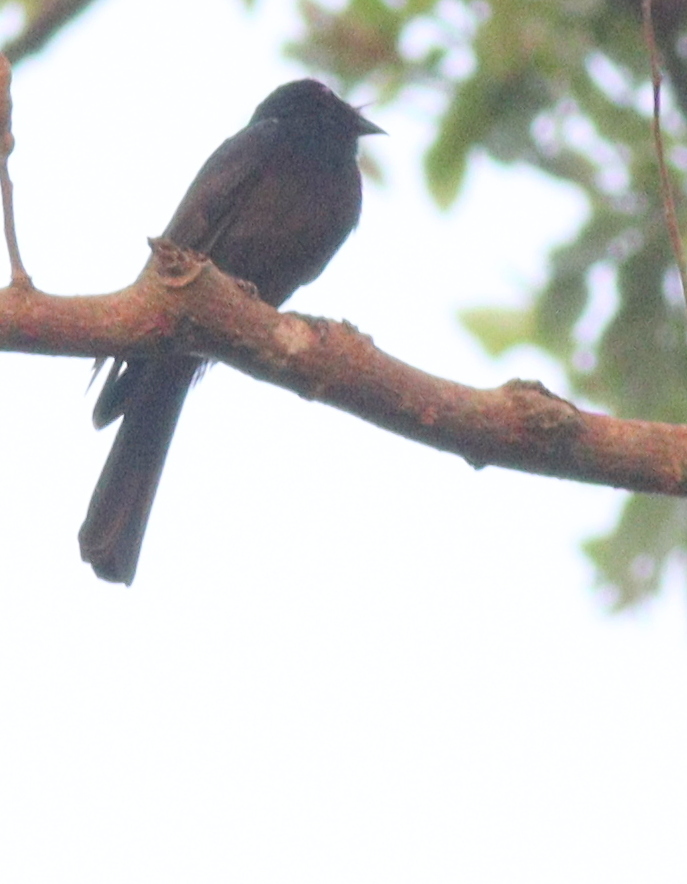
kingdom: Animalia
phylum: Chordata
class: Aves
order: Passeriformes
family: Dicruridae
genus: Dicrurus
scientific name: Dicrurus sharpei
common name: Sharpe's drongo
